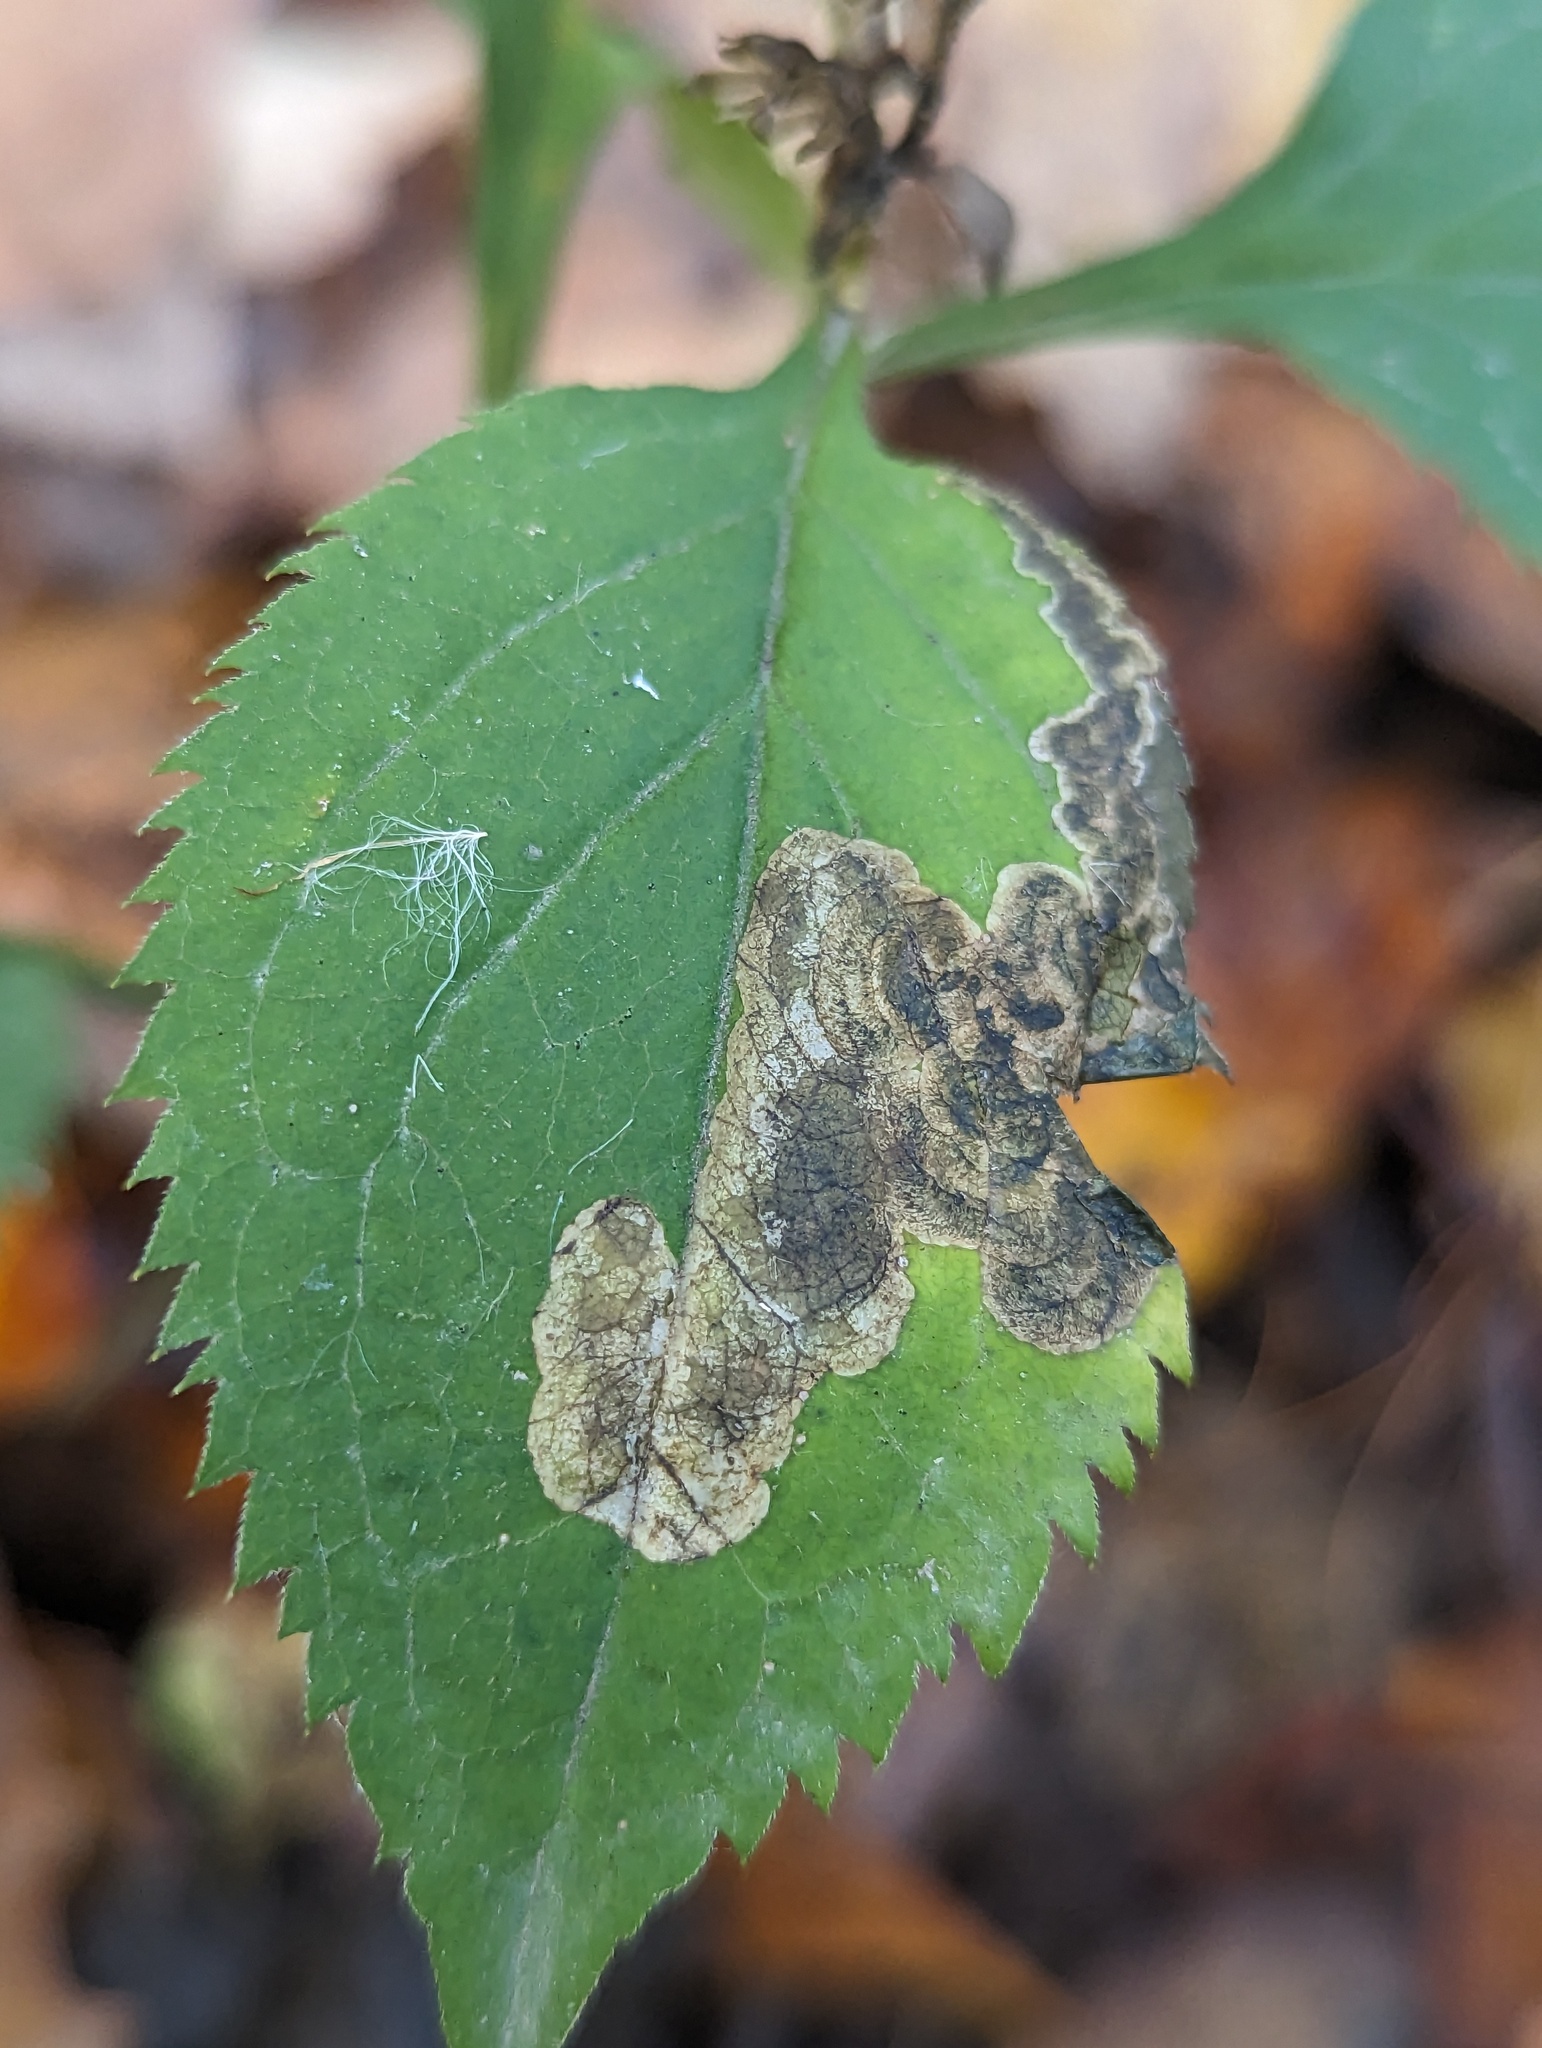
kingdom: Animalia
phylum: Arthropoda
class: Insecta
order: Diptera
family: Agromyzidae
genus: Nemorimyza
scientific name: Nemorimyza posticata
